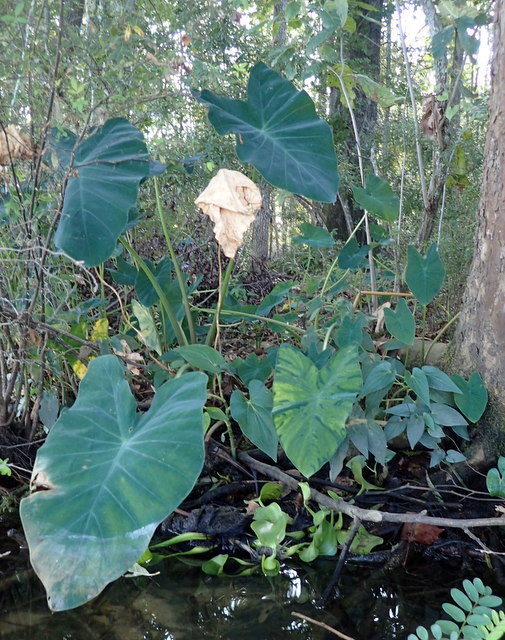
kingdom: Plantae
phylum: Tracheophyta
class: Liliopsida
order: Alismatales
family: Araceae
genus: Colocasia
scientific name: Colocasia esculenta
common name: Taro
